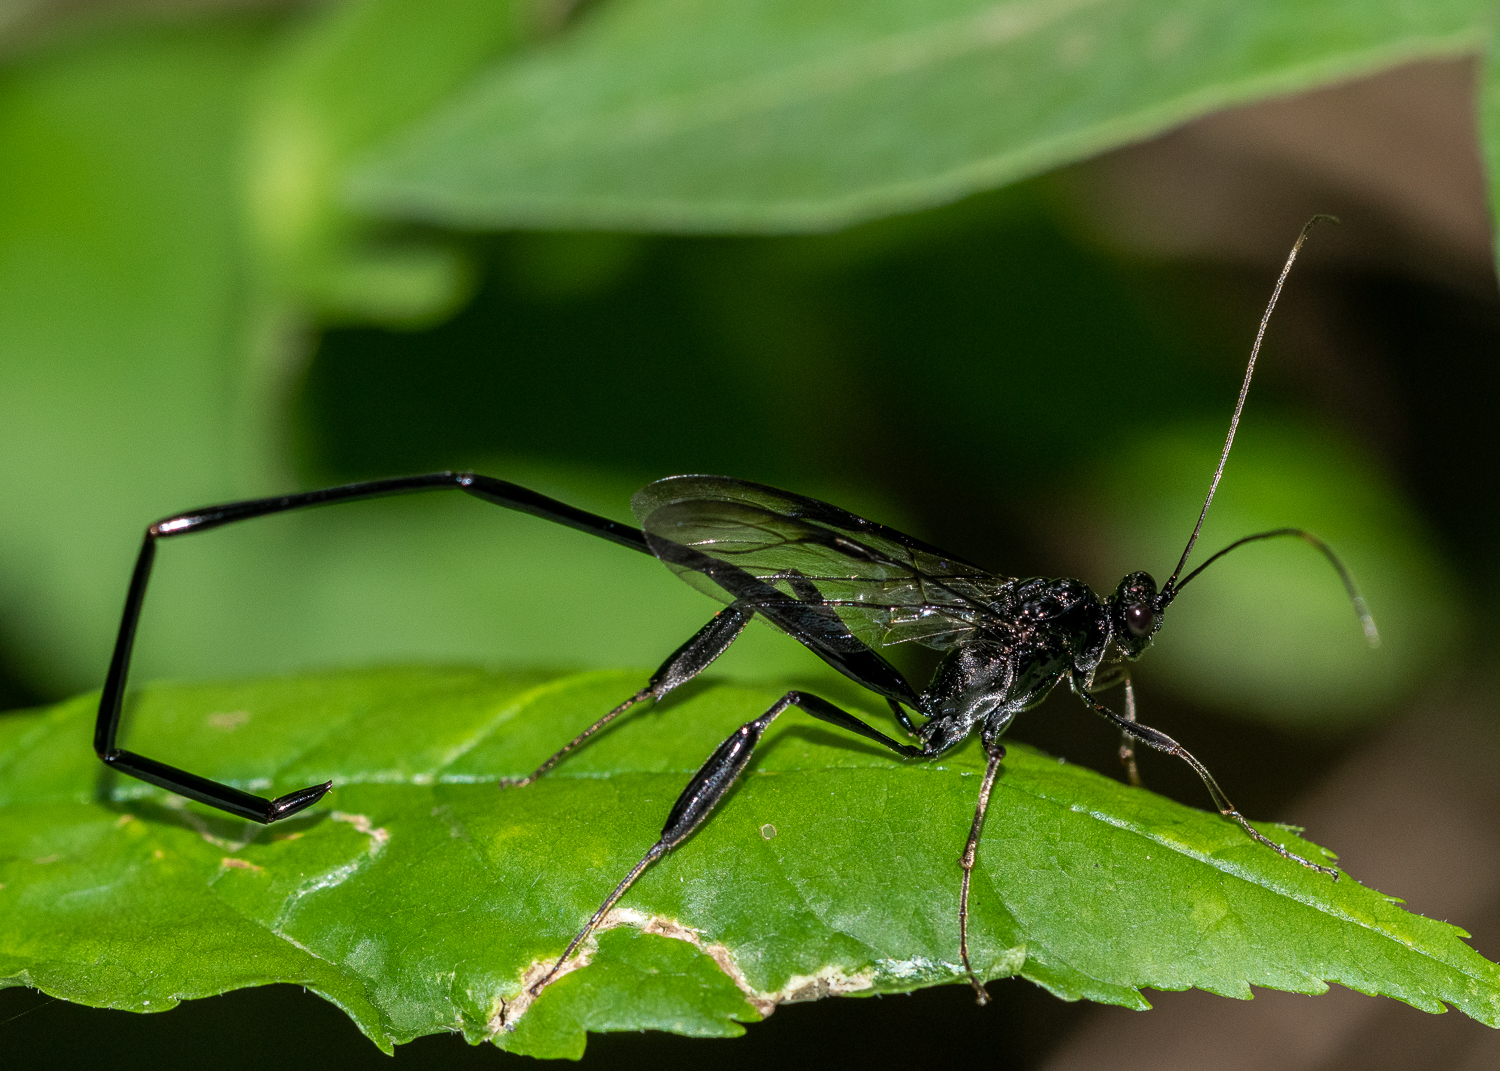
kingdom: Animalia
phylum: Arthropoda
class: Insecta
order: Hymenoptera
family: Pelecinidae
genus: Pelecinus
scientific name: Pelecinus polyturator
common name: American pelecinid wasp
